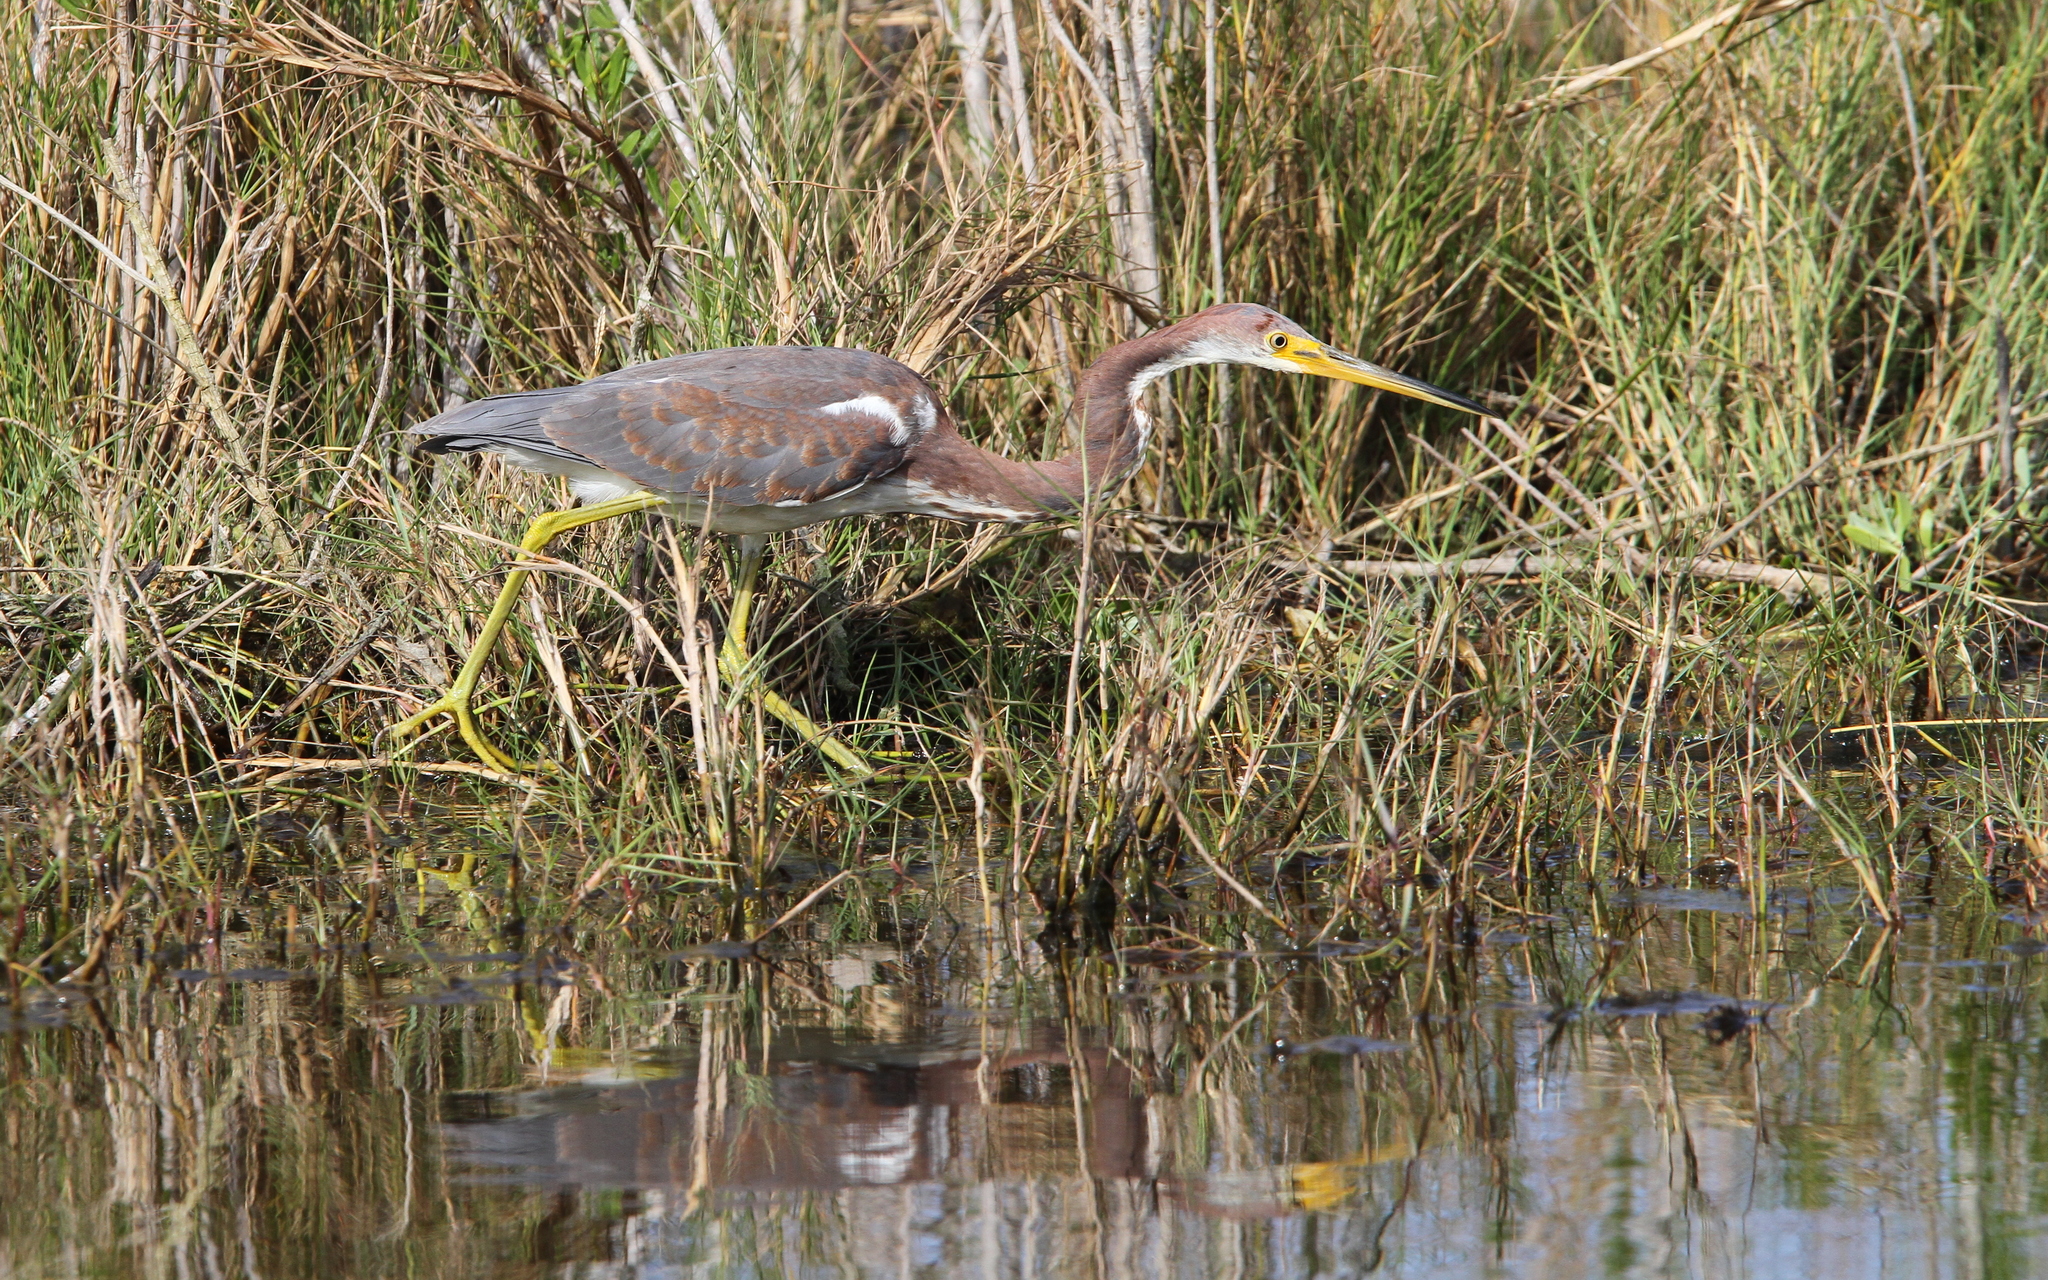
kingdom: Animalia
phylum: Chordata
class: Aves
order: Pelecaniformes
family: Ardeidae
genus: Egretta
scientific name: Egretta tricolor
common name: Tricolored heron
